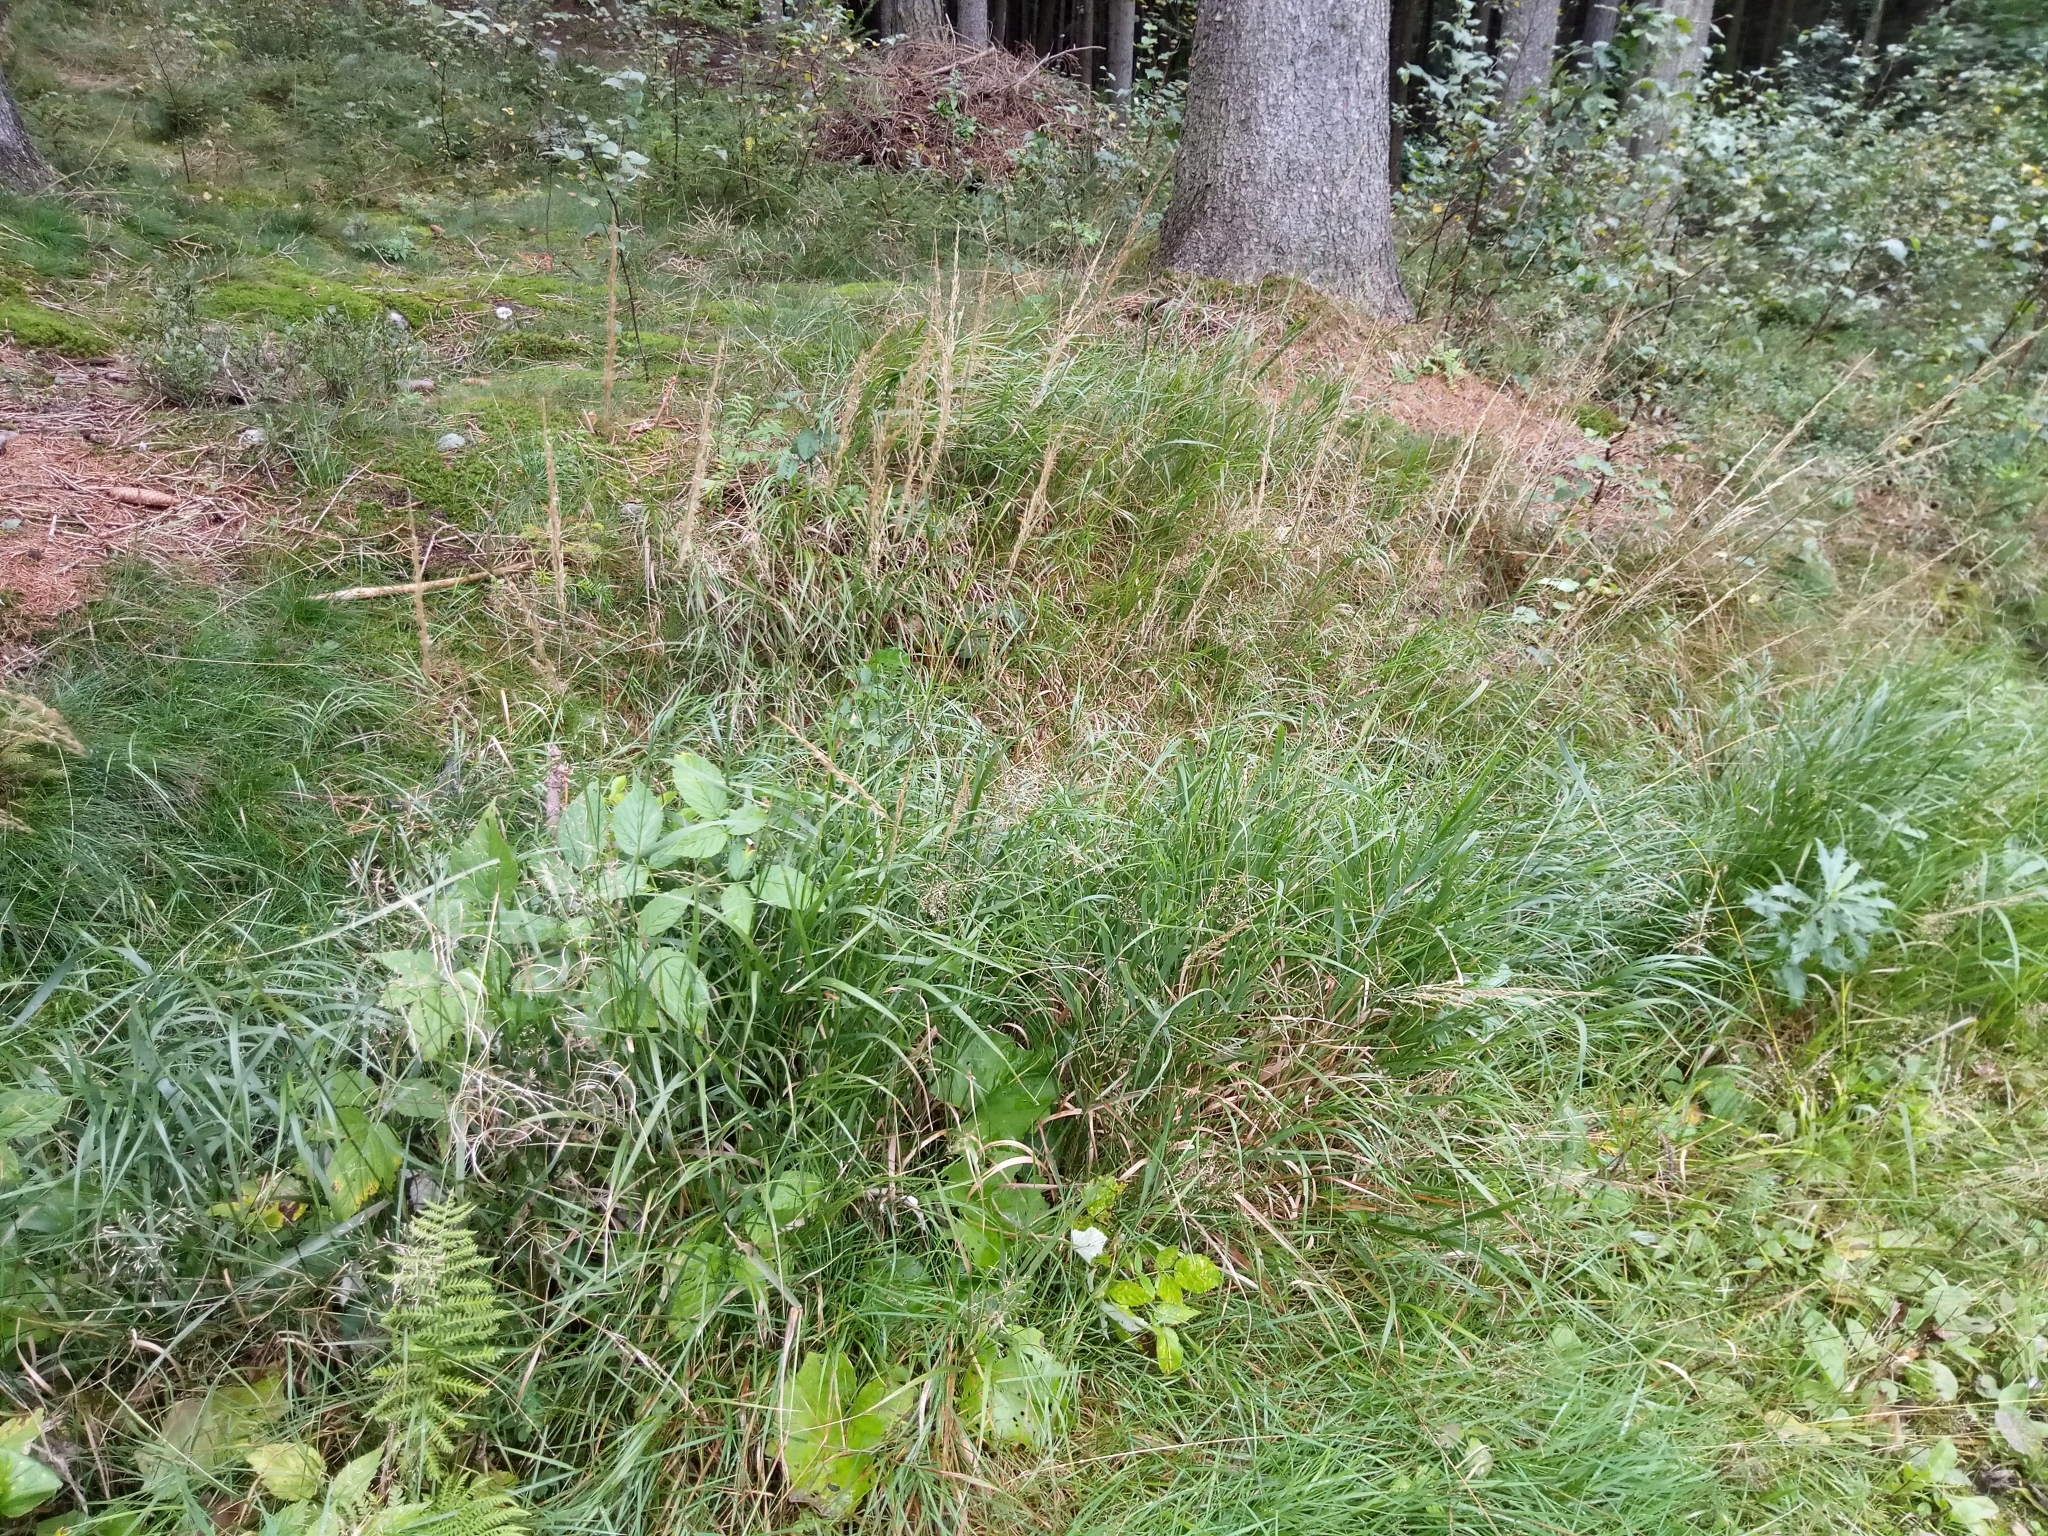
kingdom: Plantae
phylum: Tracheophyta
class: Liliopsida
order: Poales
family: Poaceae
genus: Calamagrostis
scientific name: Calamagrostis villosa
